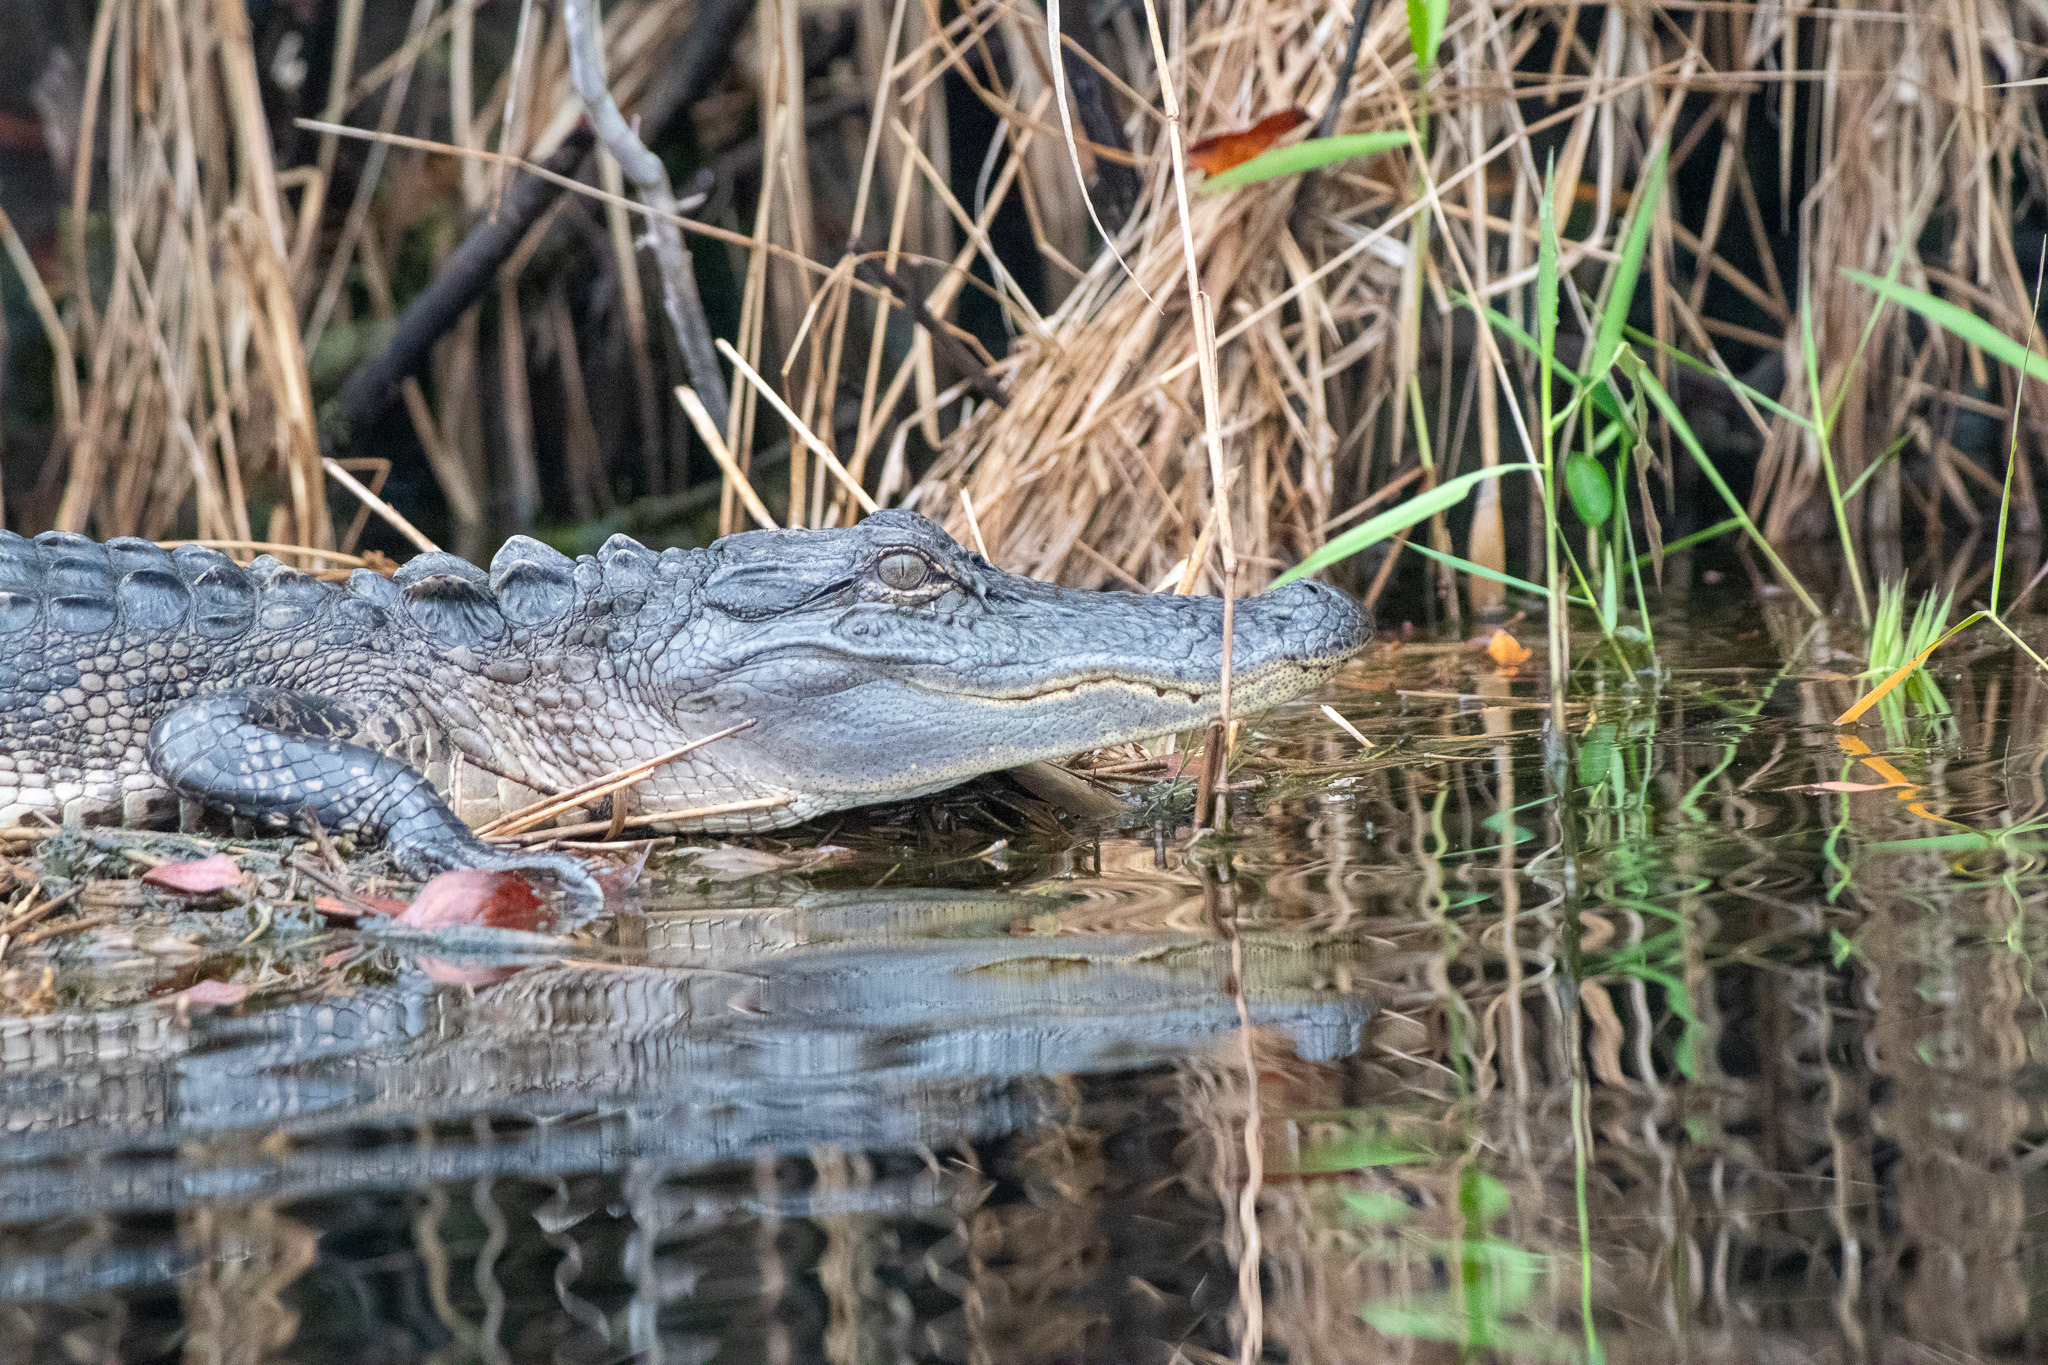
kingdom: Animalia
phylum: Chordata
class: Crocodylia
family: Alligatoridae
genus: Alligator
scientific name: Alligator mississippiensis
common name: American alligator
